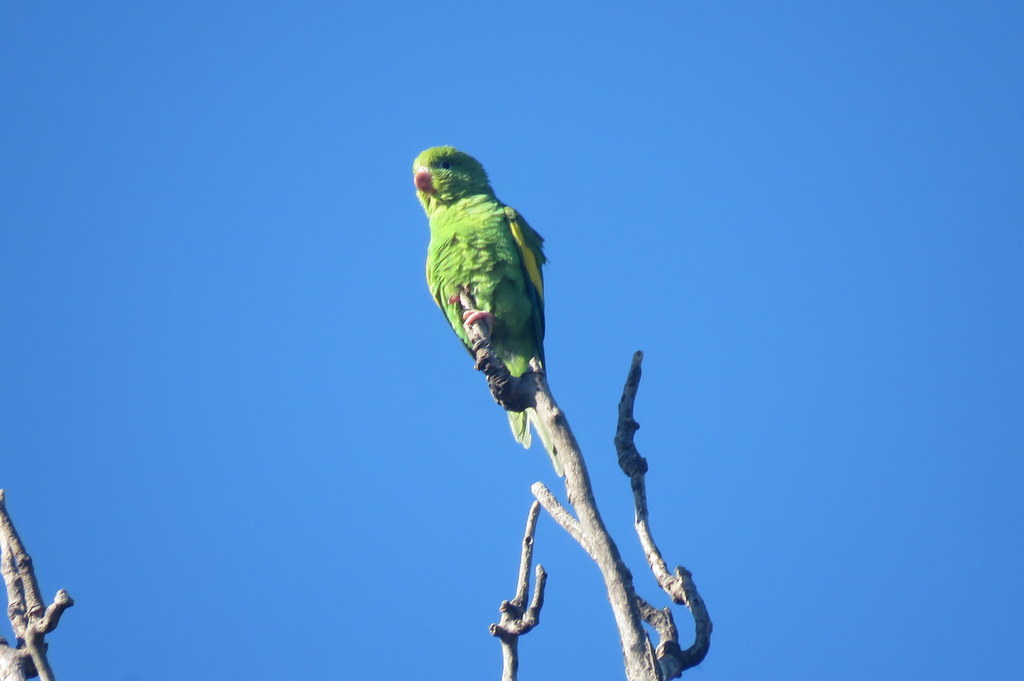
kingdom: Animalia
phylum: Chordata
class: Aves
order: Psittaciformes
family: Psittacidae
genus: Brotogeris
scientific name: Brotogeris chiriri
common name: Yellow-chevroned parakeet
